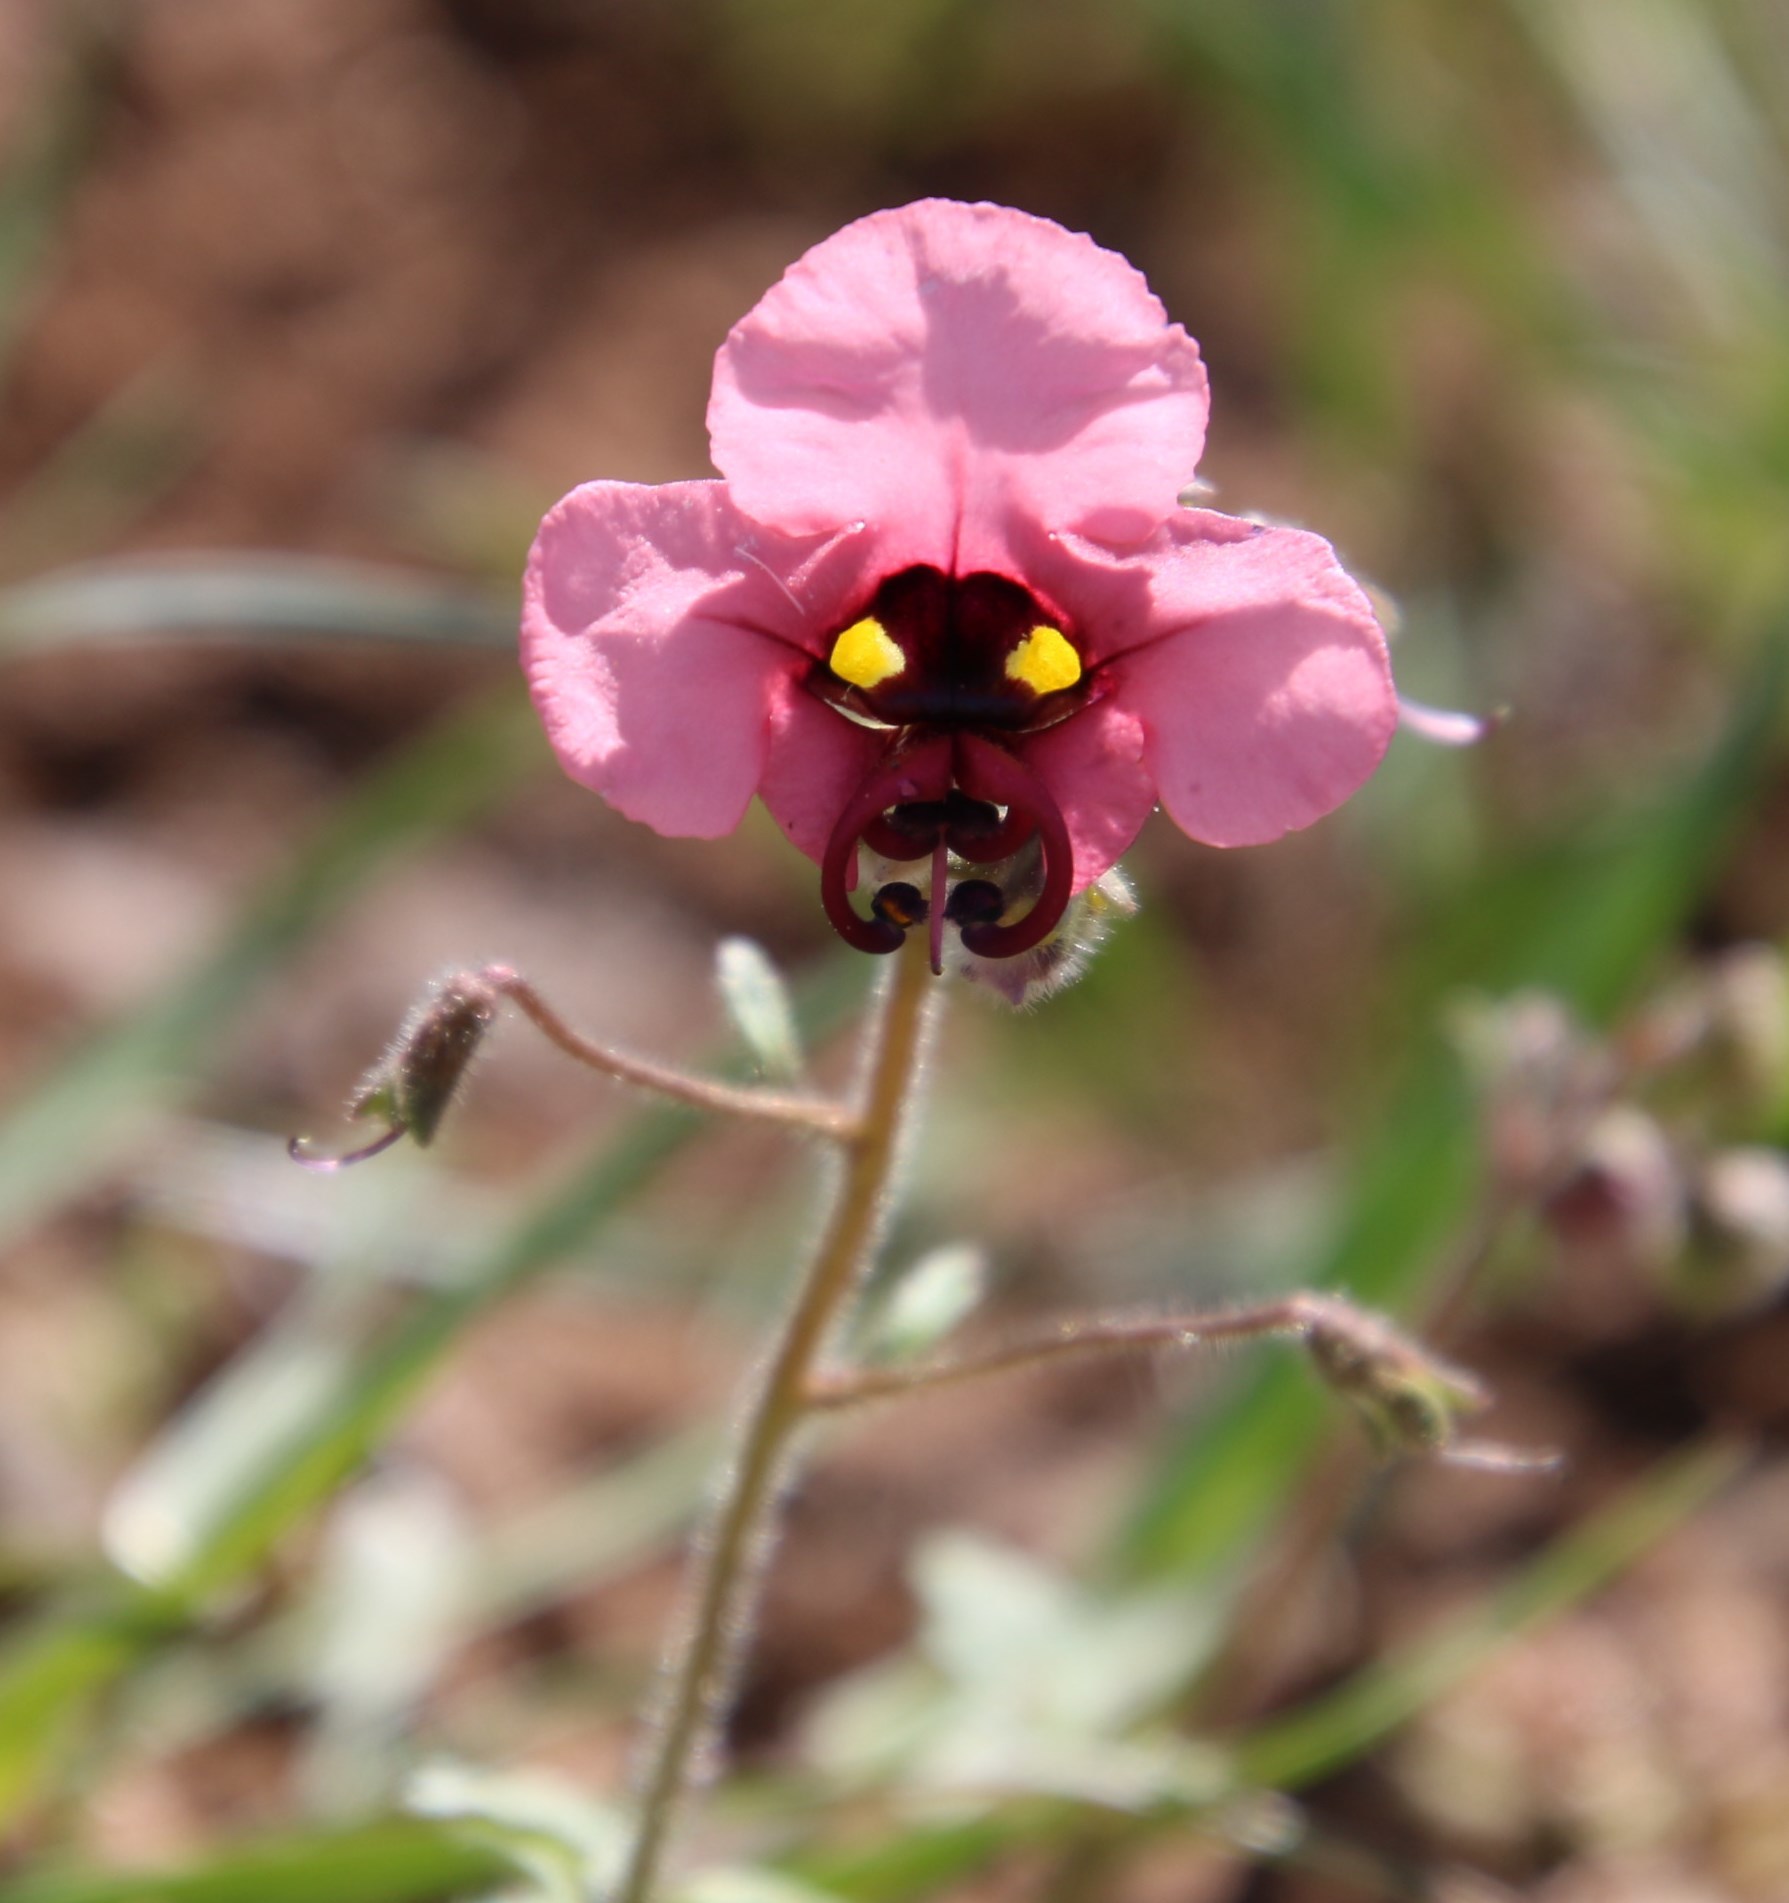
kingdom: Plantae
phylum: Tracheophyta
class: Magnoliopsida
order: Lamiales
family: Scrophulariaceae
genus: Alonsoa
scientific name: Alonsoa unilabiata
